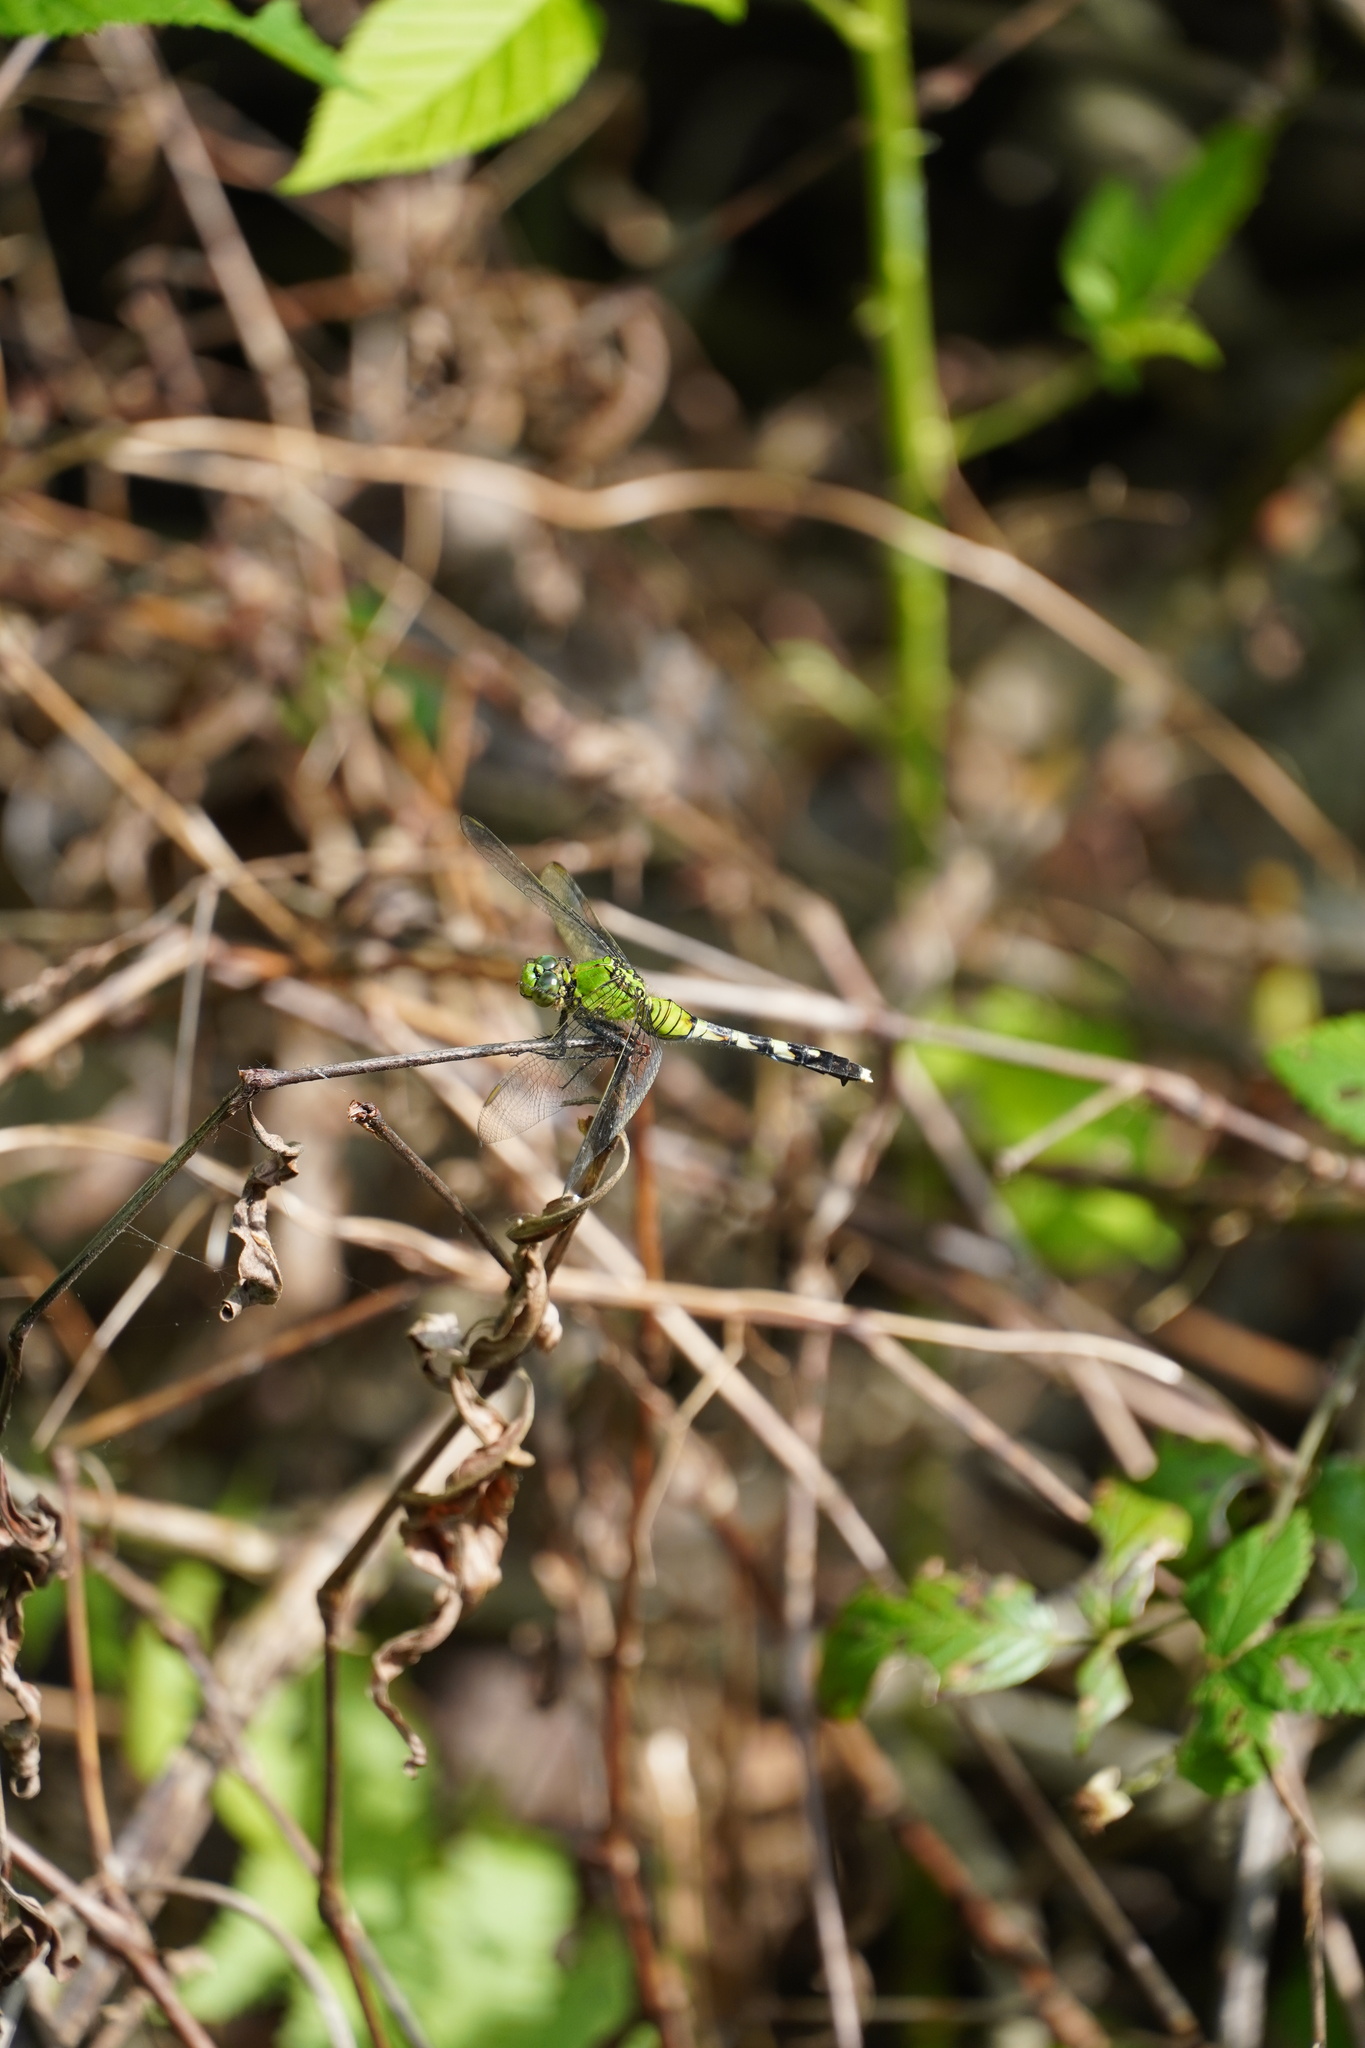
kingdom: Animalia
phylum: Arthropoda
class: Insecta
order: Odonata
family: Libellulidae
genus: Erythemis
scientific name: Erythemis simplicicollis
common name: Eastern pondhawk
